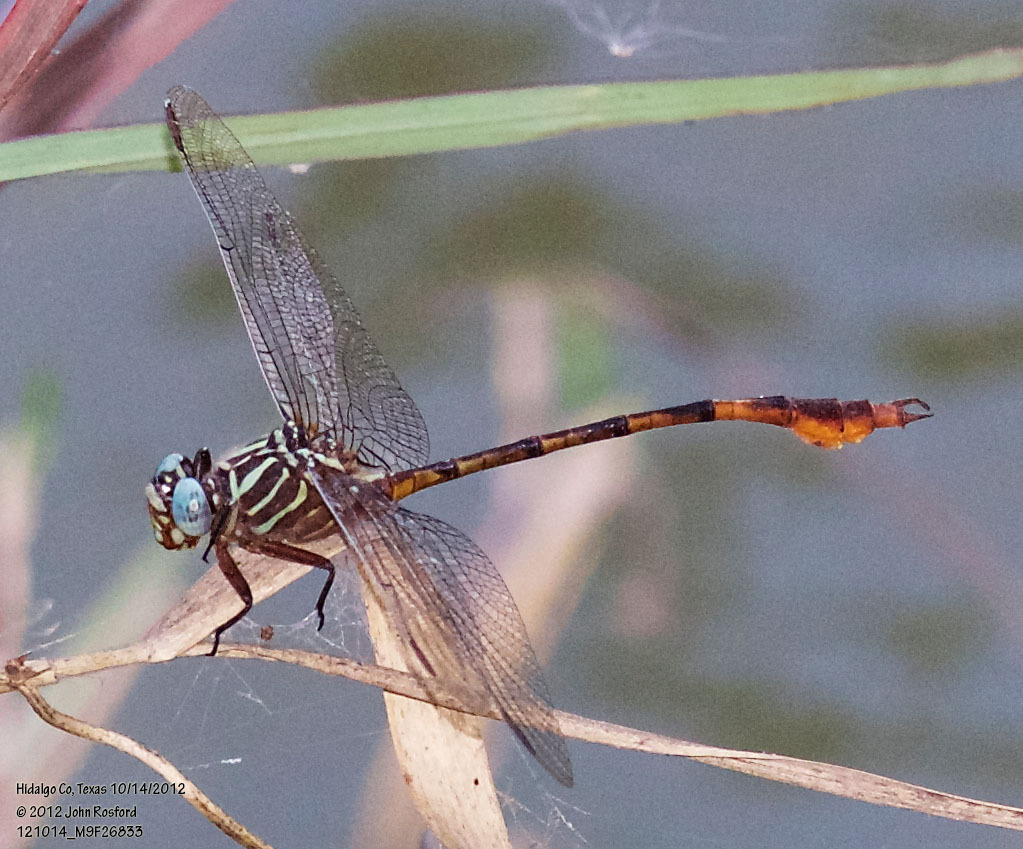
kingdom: Animalia
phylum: Arthropoda
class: Insecta
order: Odonata
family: Gomphidae
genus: Aphylla
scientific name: Aphylla protracta
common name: Narrow-striped forceptail
